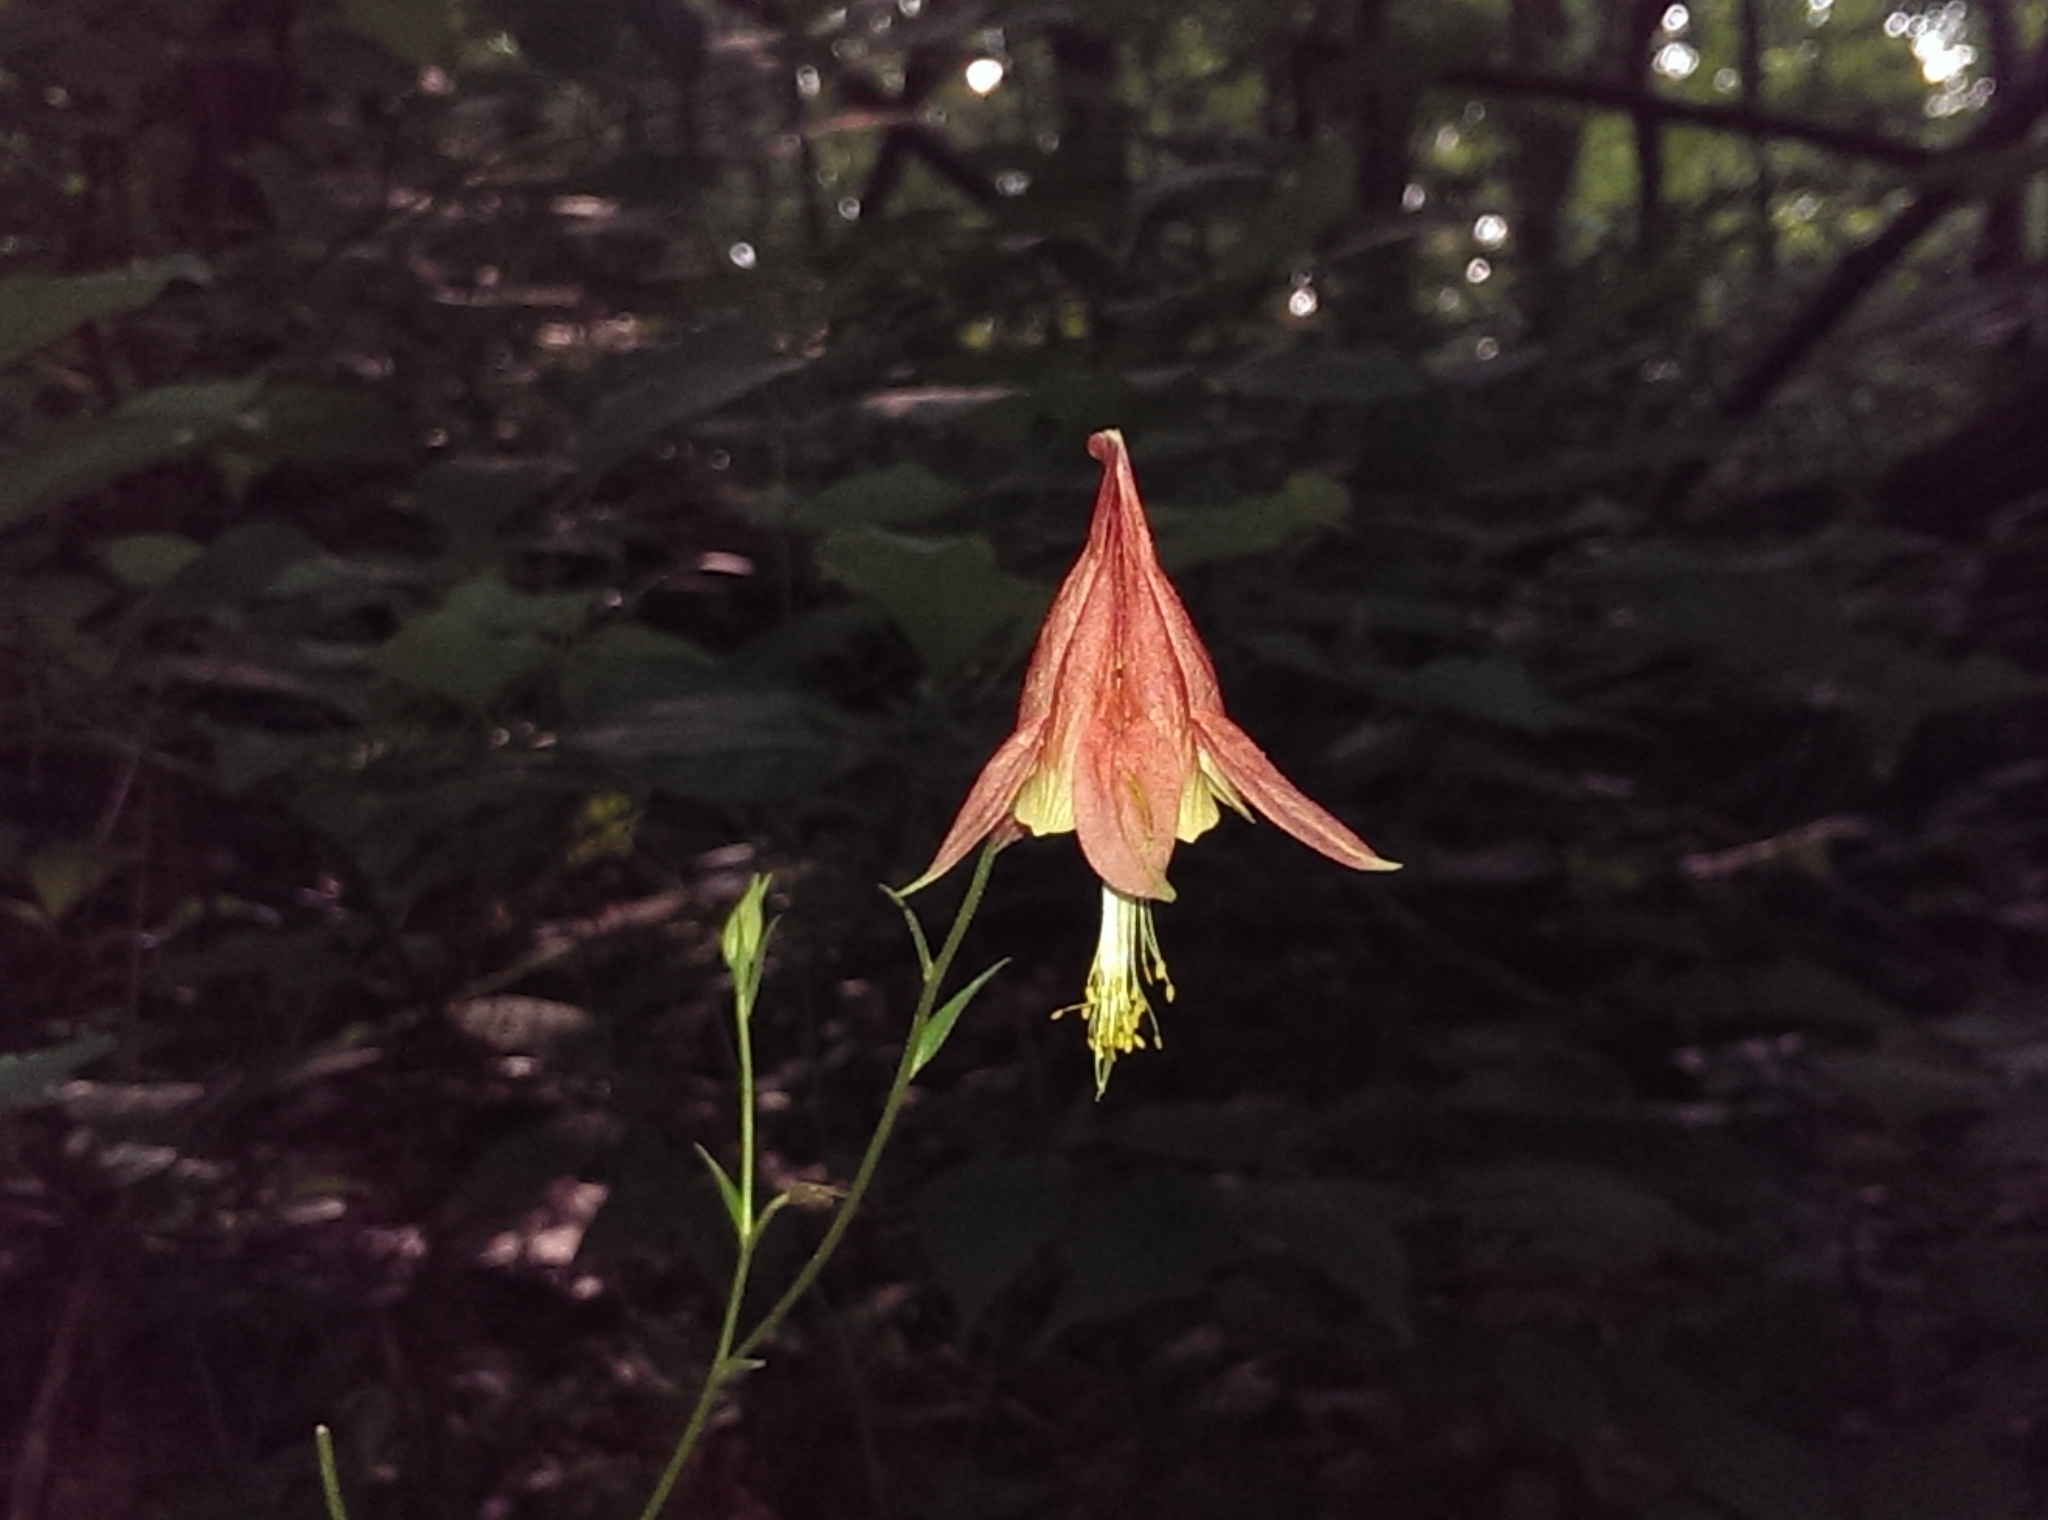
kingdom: Plantae
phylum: Tracheophyta
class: Magnoliopsida
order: Ranunculales
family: Ranunculaceae
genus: Aquilegia
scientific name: Aquilegia canadensis
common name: American columbine
